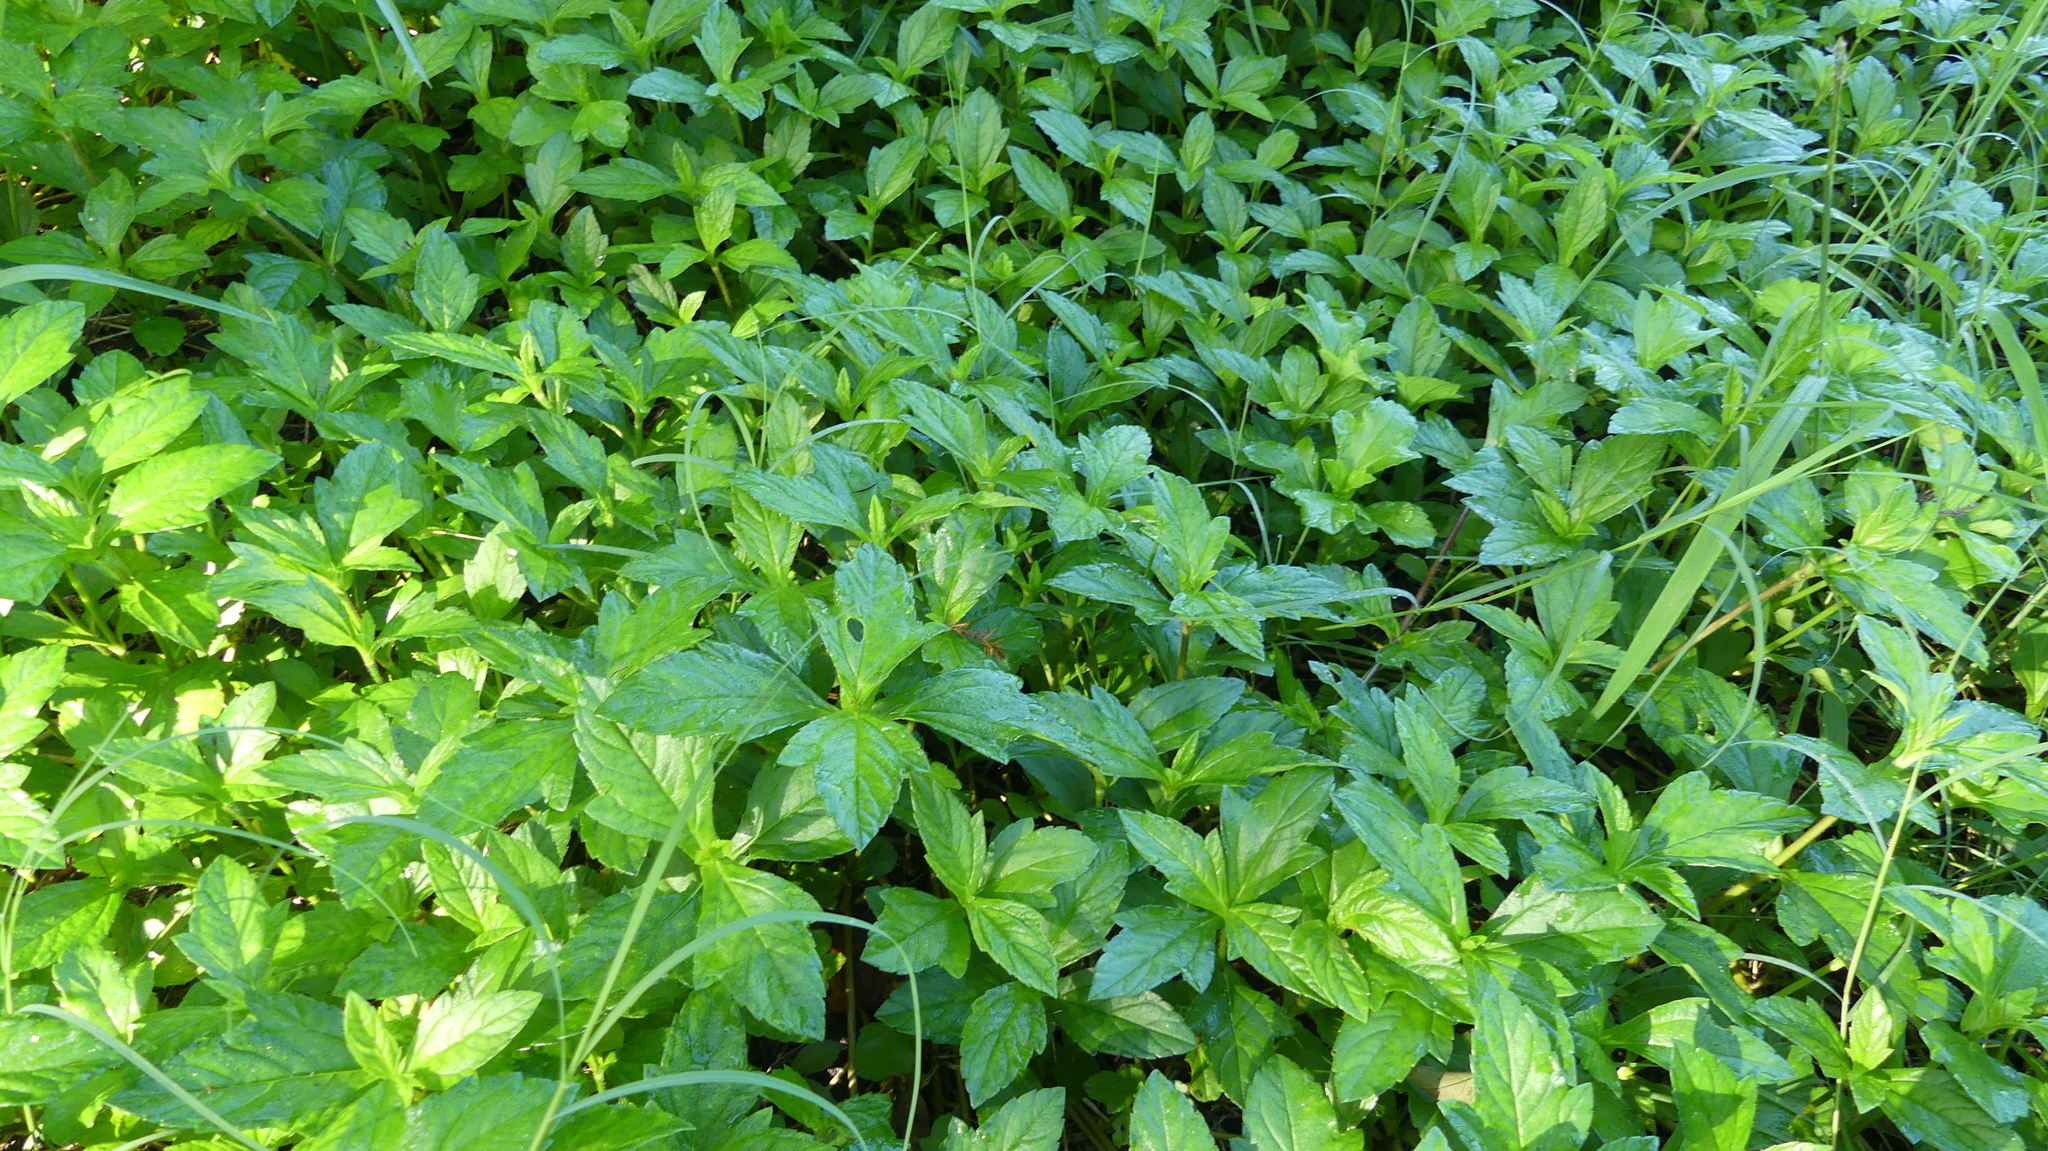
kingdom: Plantae
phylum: Tracheophyta
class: Magnoliopsida
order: Asterales
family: Asteraceae
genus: Sphagneticola
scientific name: Sphagneticola trilobata
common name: Bay biscayne creeping-oxeye
